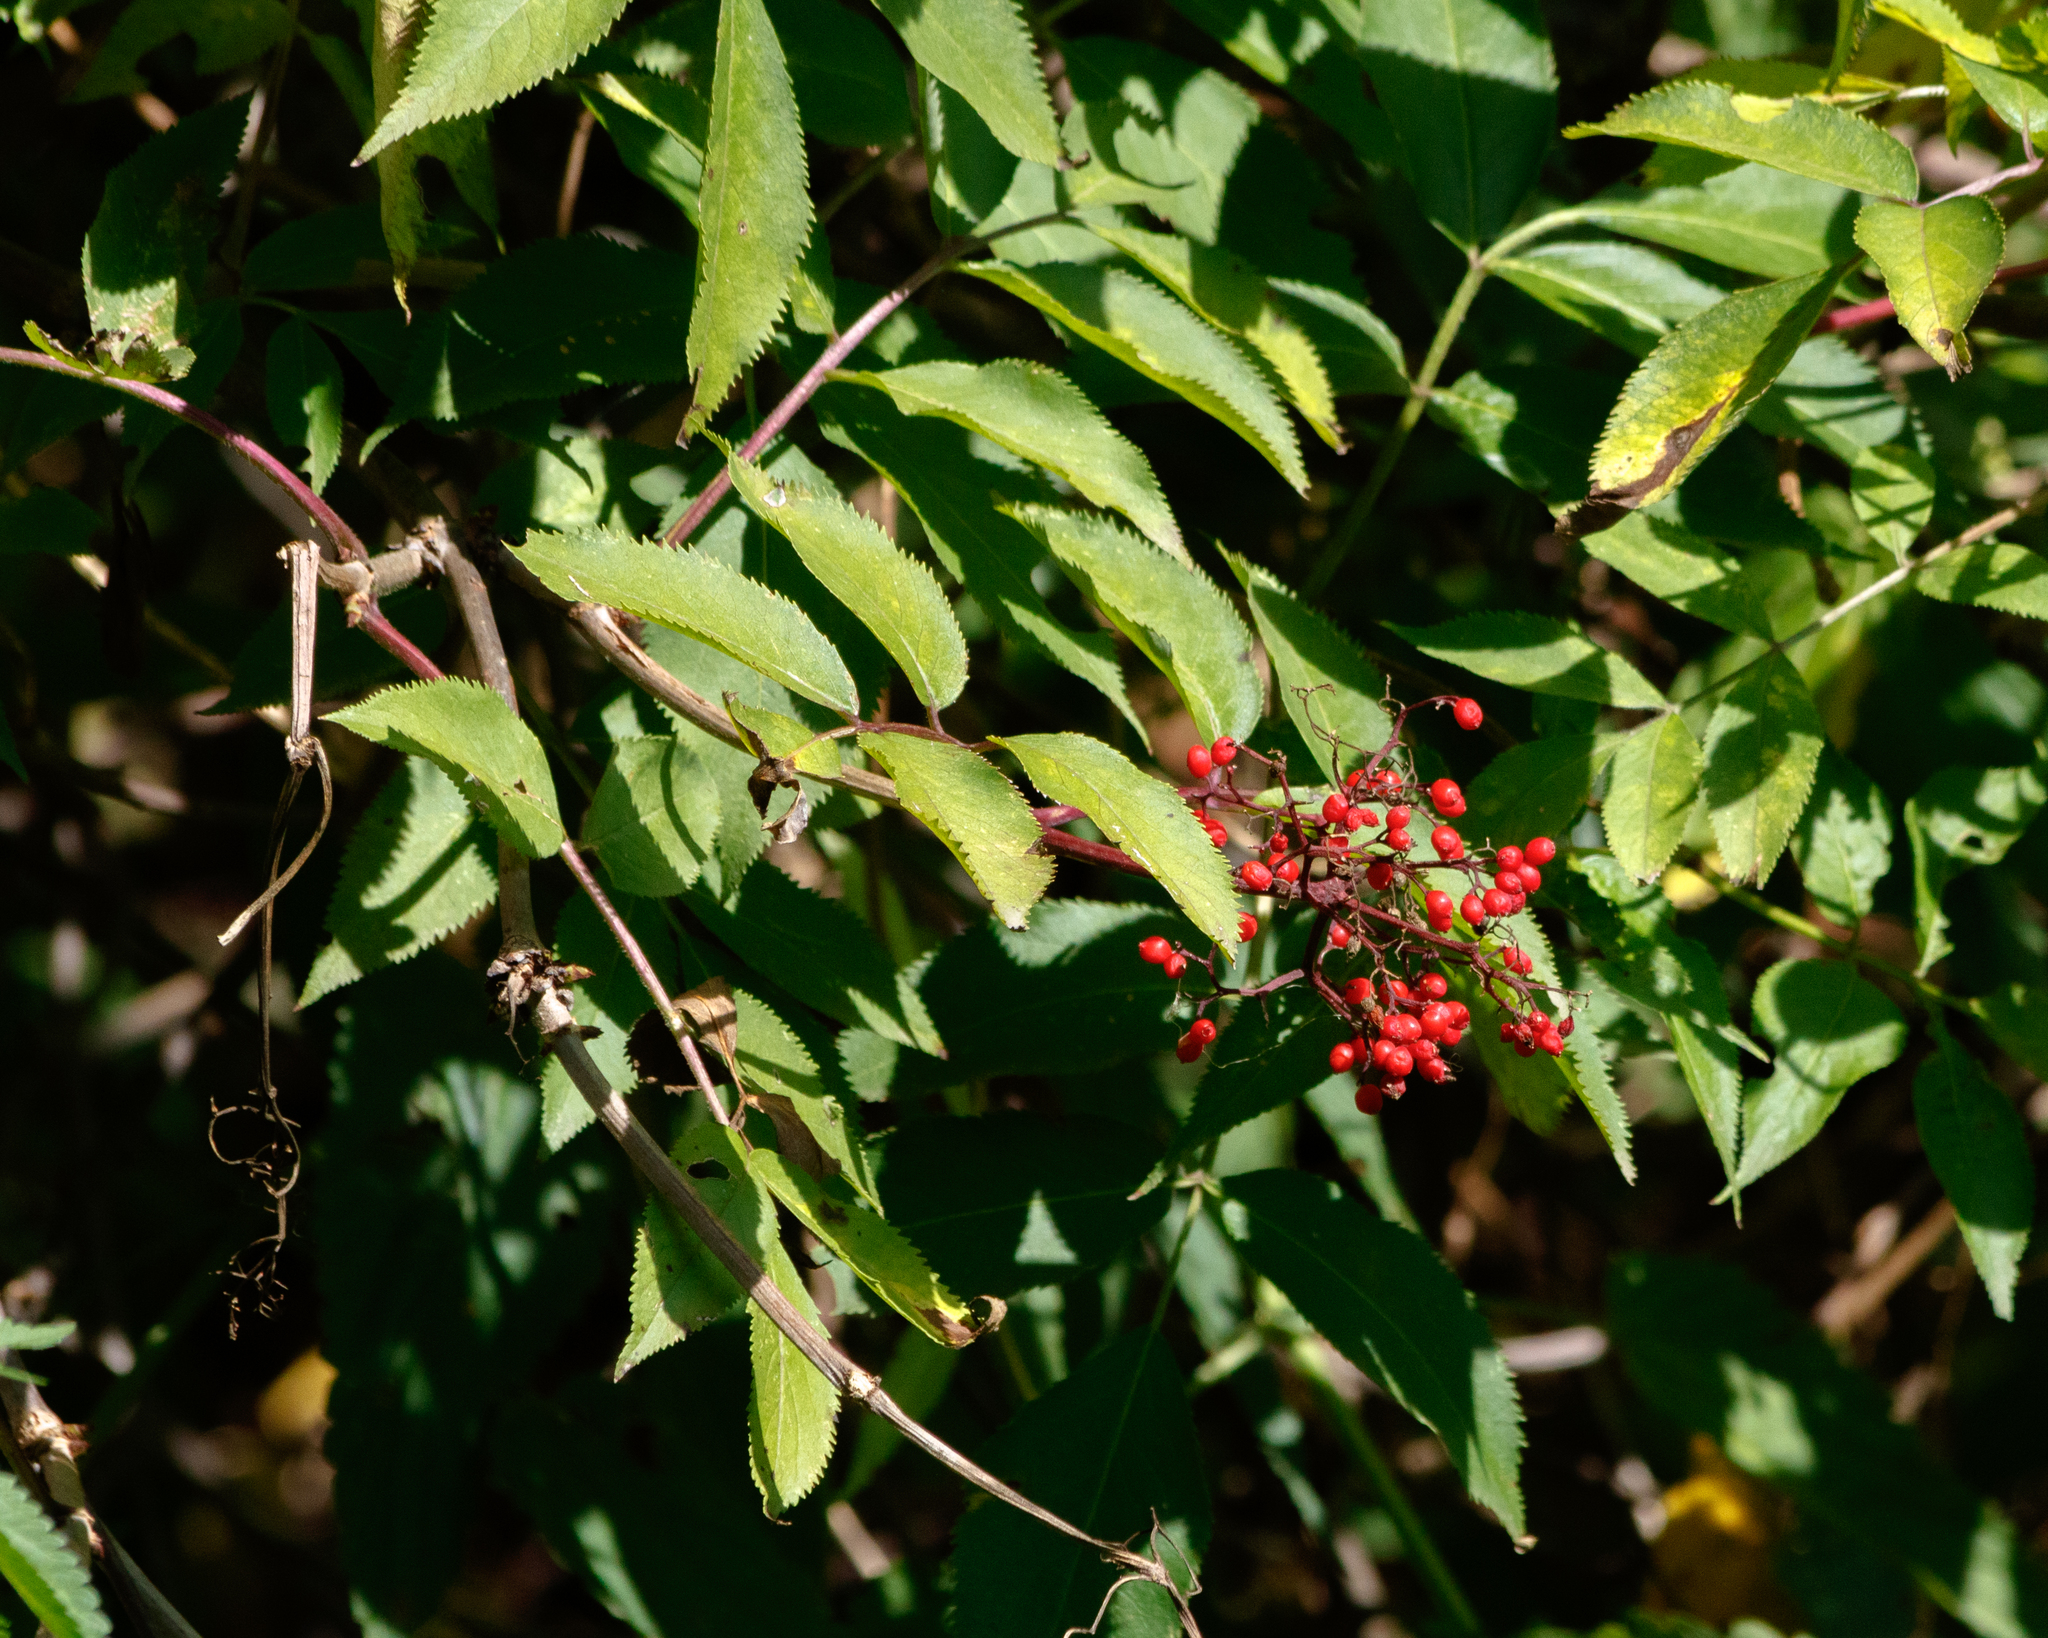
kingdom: Plantae
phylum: Tracheophyta
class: Magnoliopsida
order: Dipsacales
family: Viburnaceae
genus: Sambucus
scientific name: Sambucus racemosa
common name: Red-berried elder
